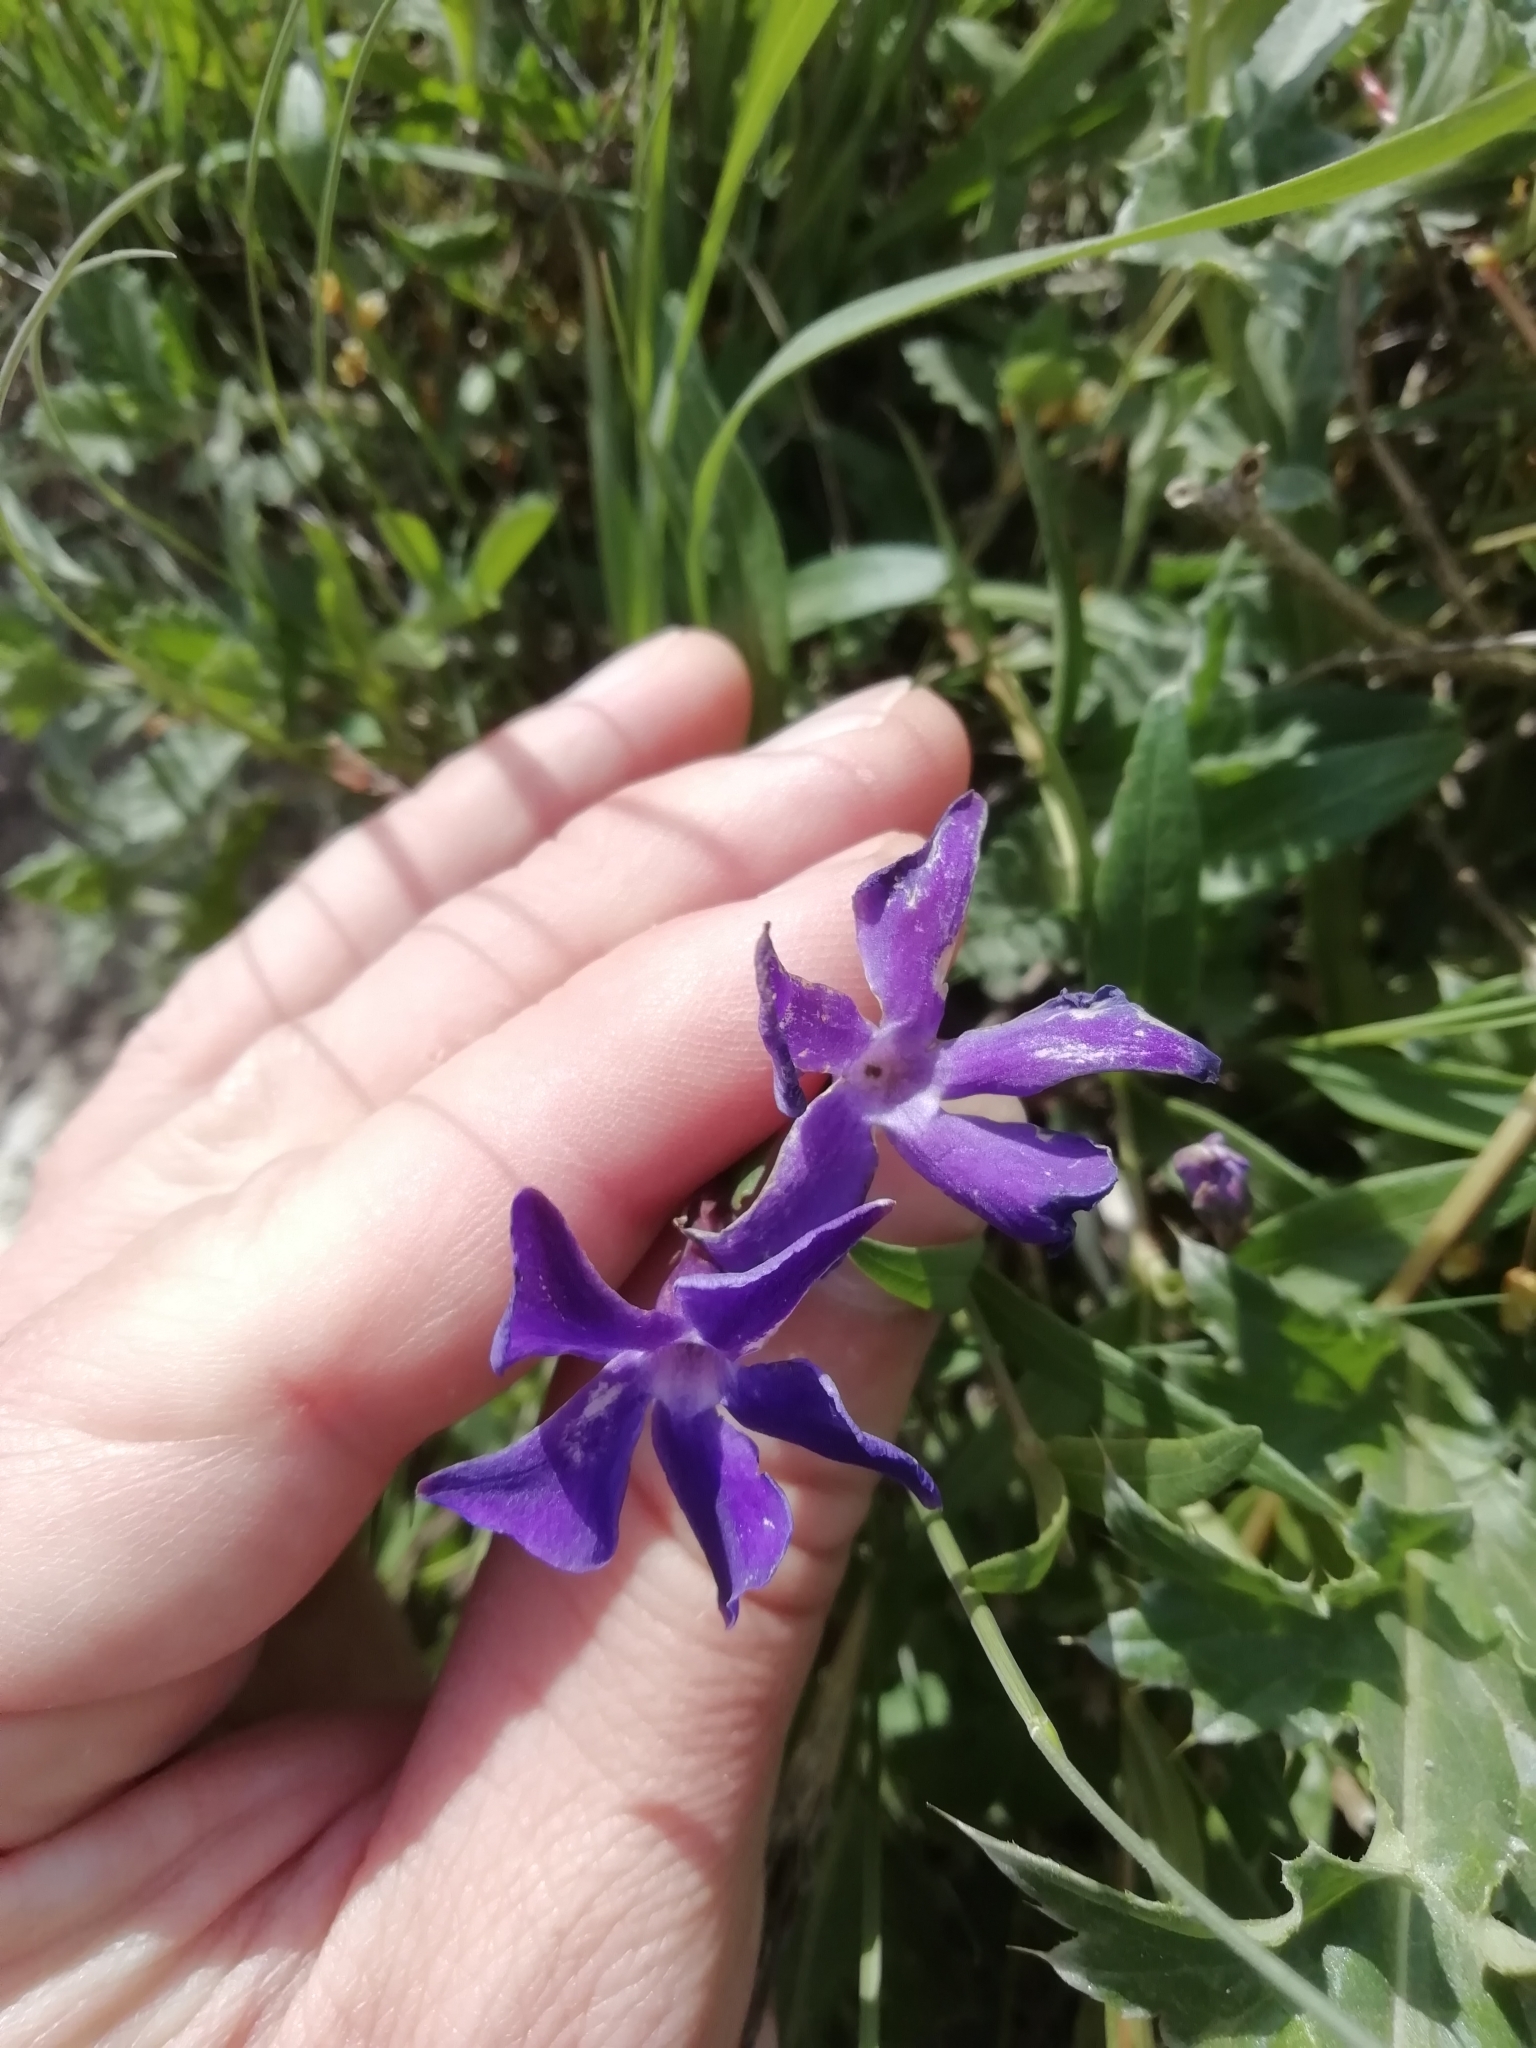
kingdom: Plantae
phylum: Tracheophyta
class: Magnoliopsida
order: Gentianales
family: Apocynaceae
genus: Vinca
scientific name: Vinca herbacea
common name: Herbaceous periwinkle
